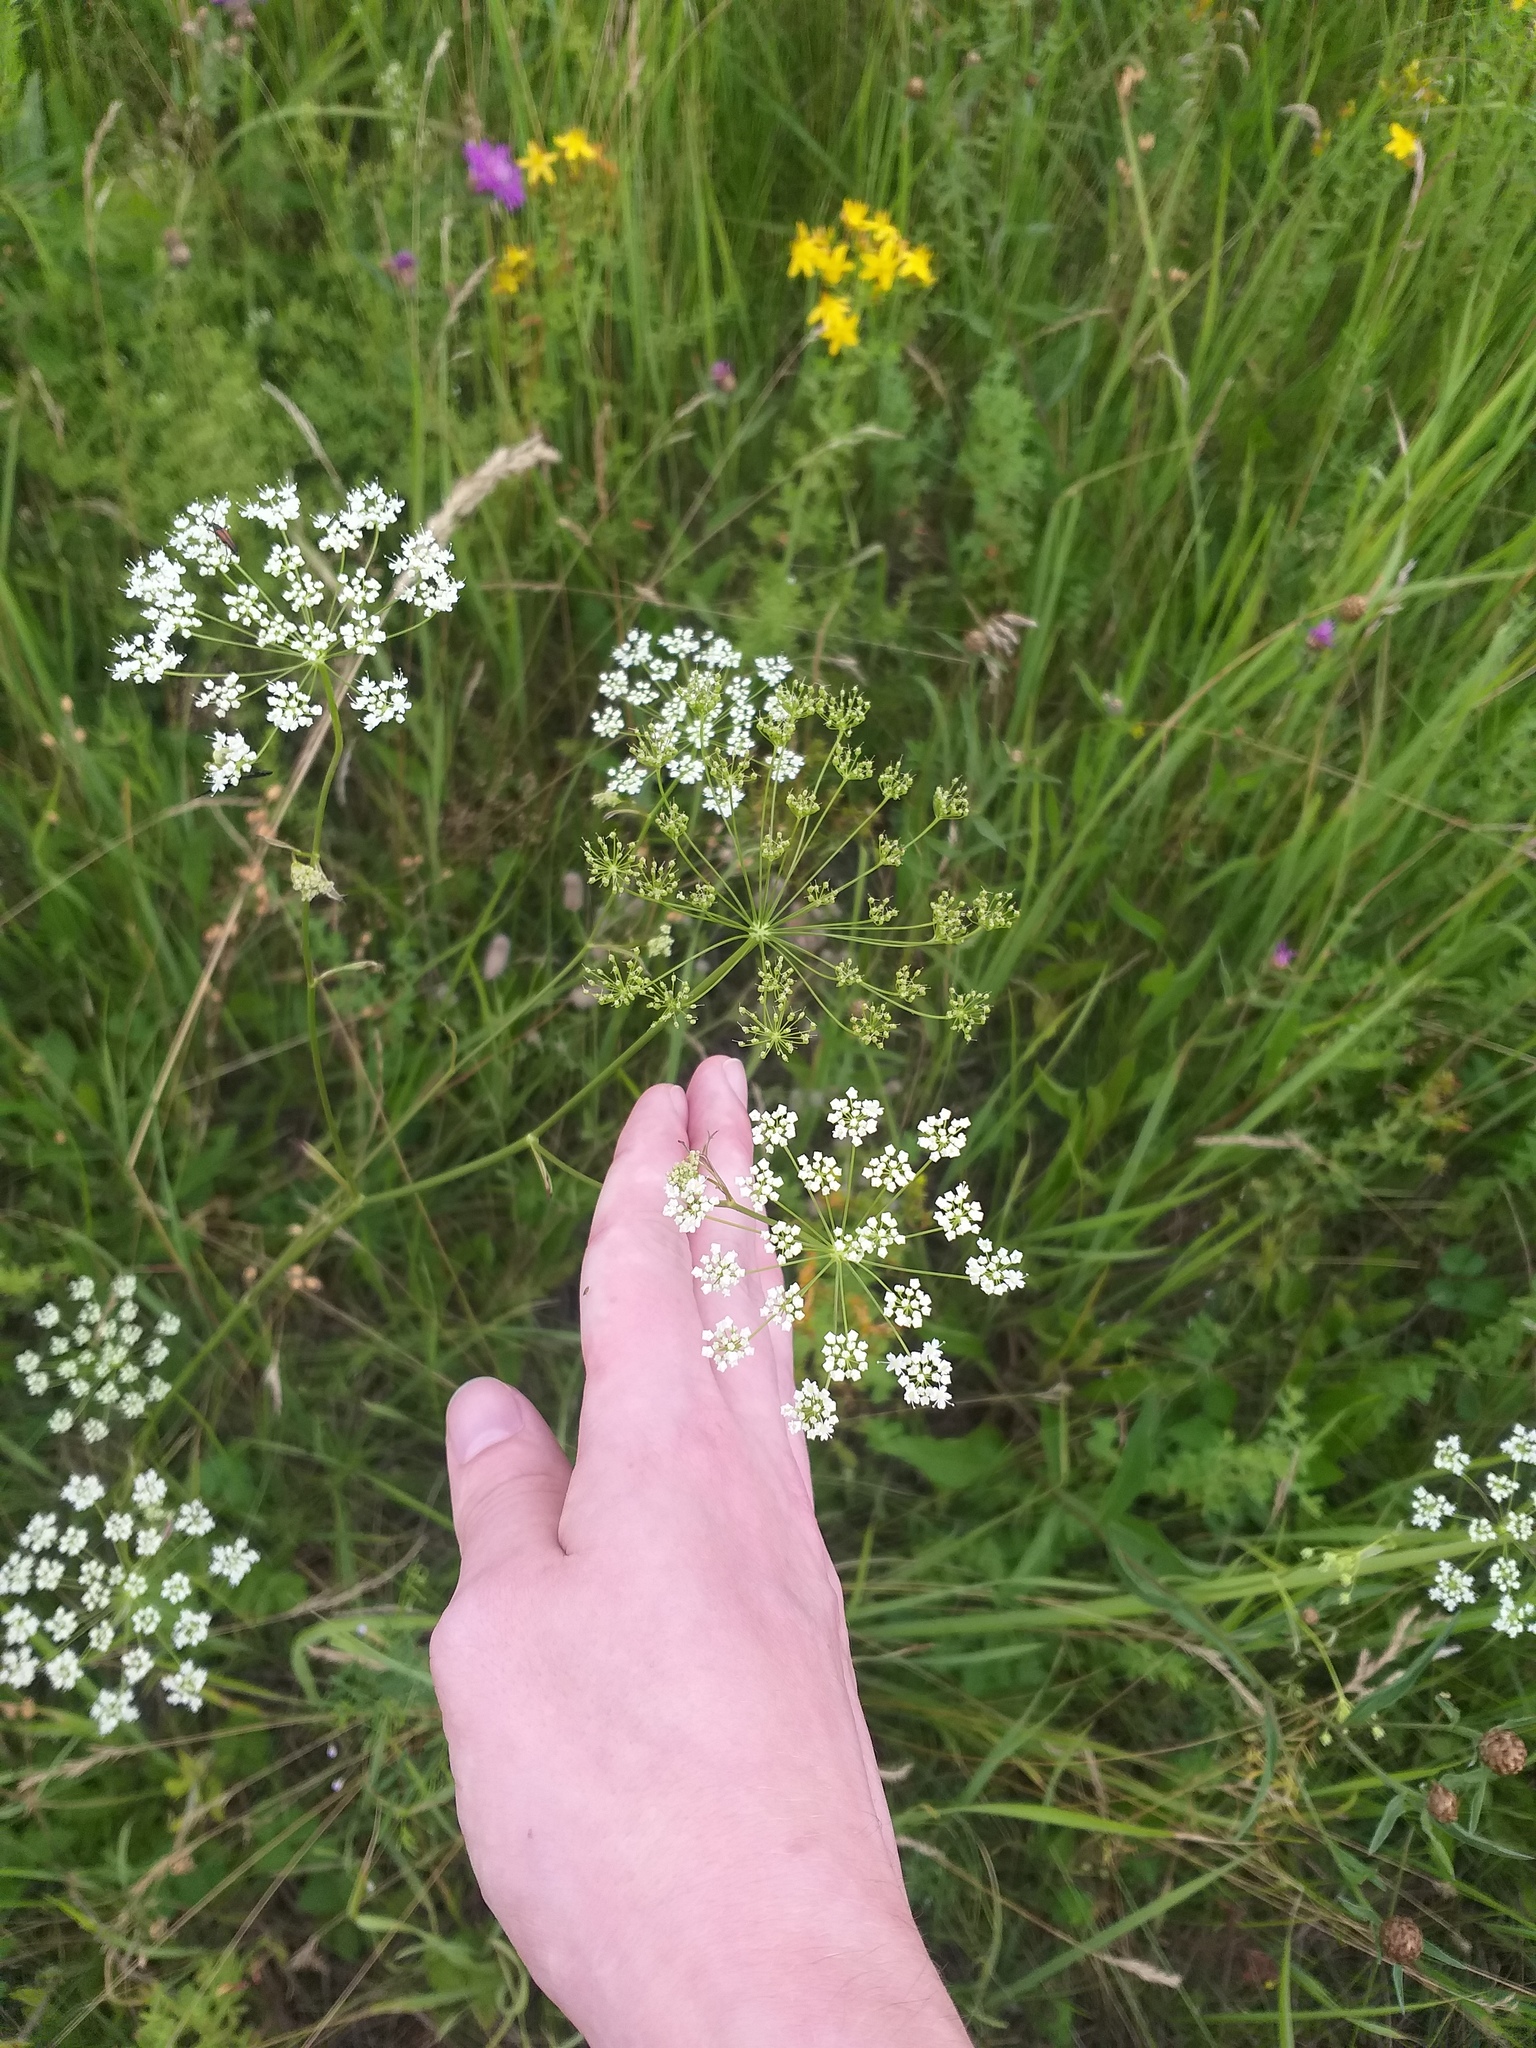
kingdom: Plantae
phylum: Tracheophyta
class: Magnoliopsida
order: Apiales
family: Apiaceae
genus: Pimpinella
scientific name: Pimpinella saxifraga
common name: Burnet-saxifrage
